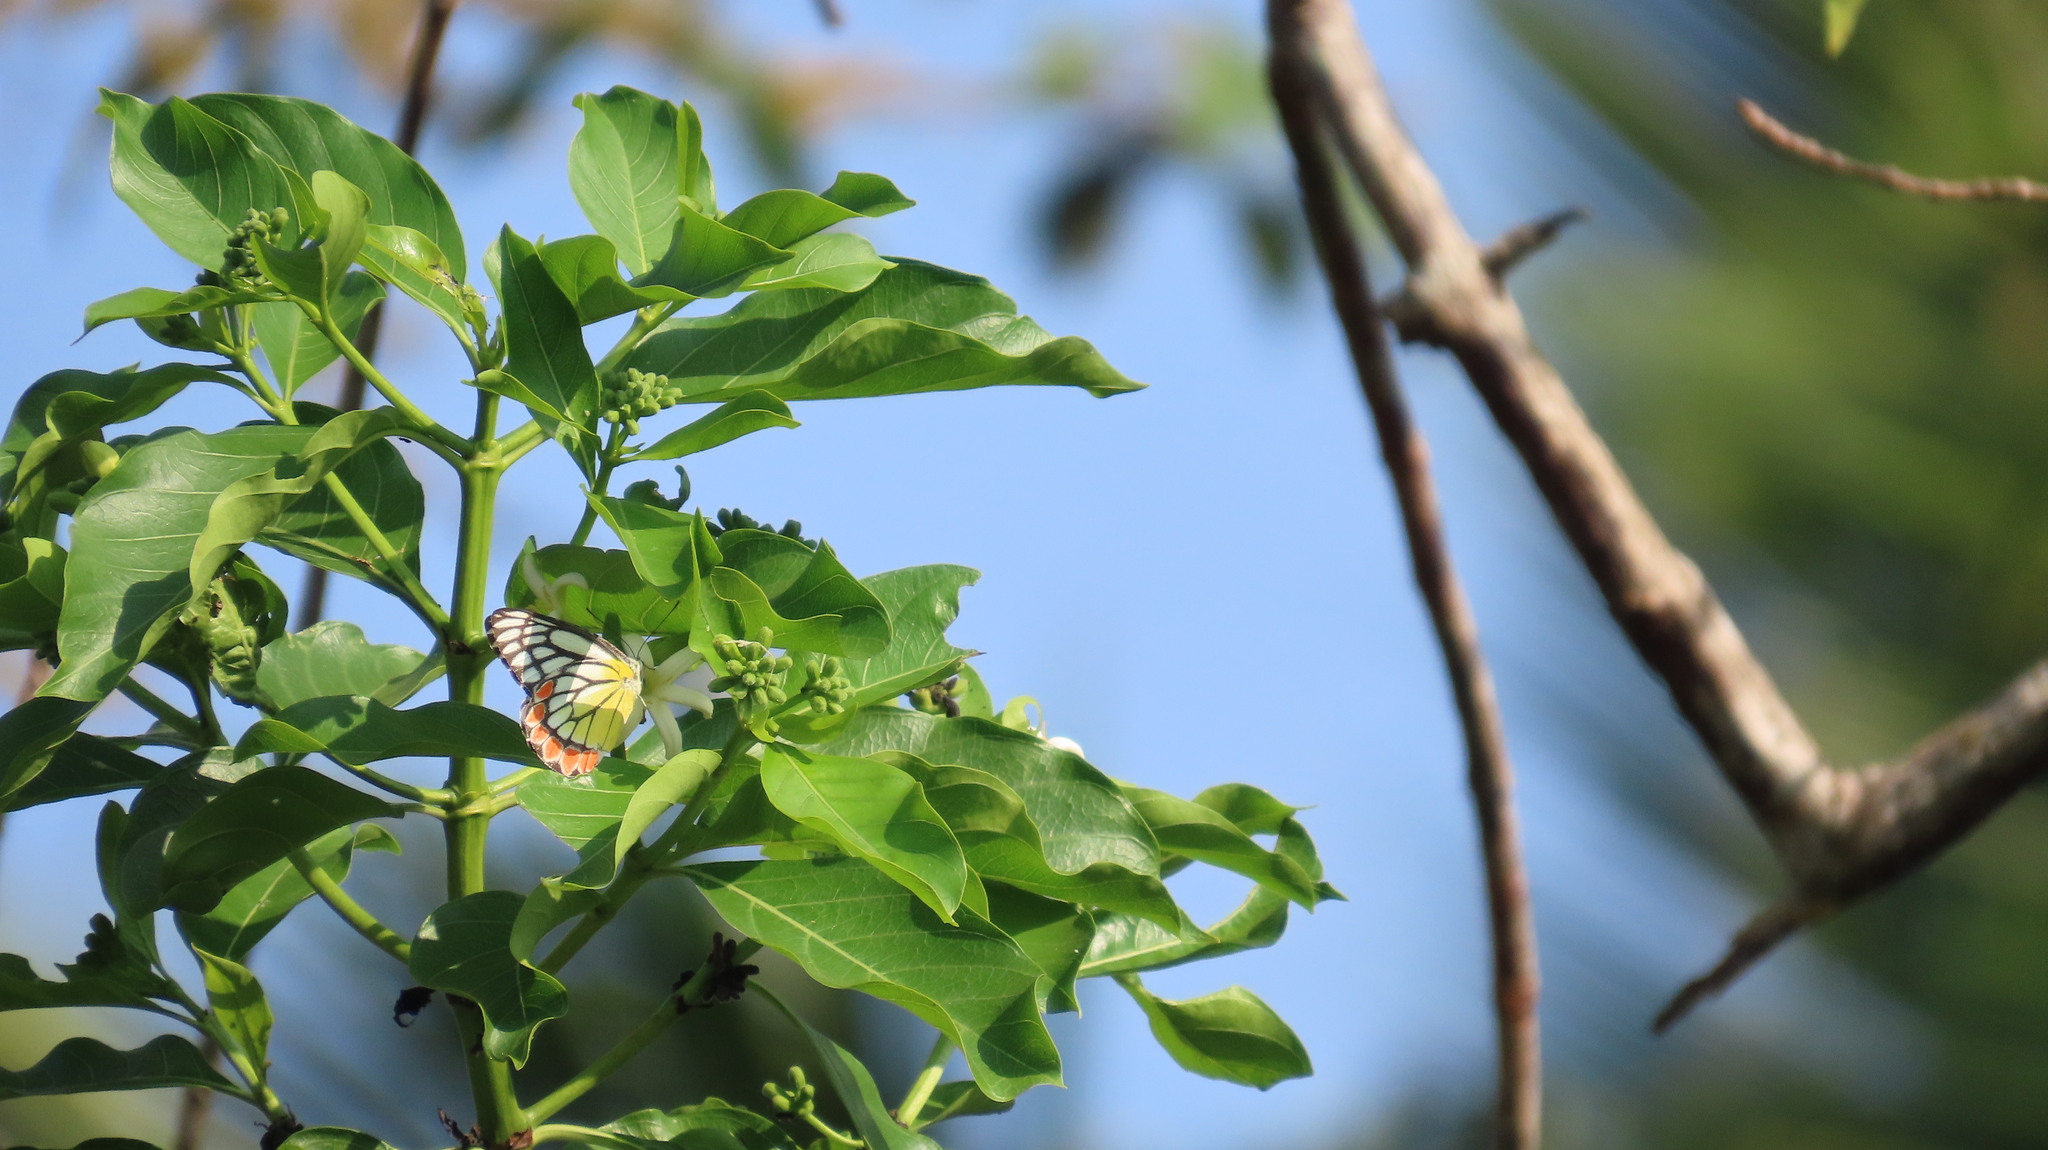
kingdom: Animalia
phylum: Arthropoda
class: Insecta
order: Lepidoptera
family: Pieridae
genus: Delias
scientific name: Delias eucharis
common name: Common jezebel
